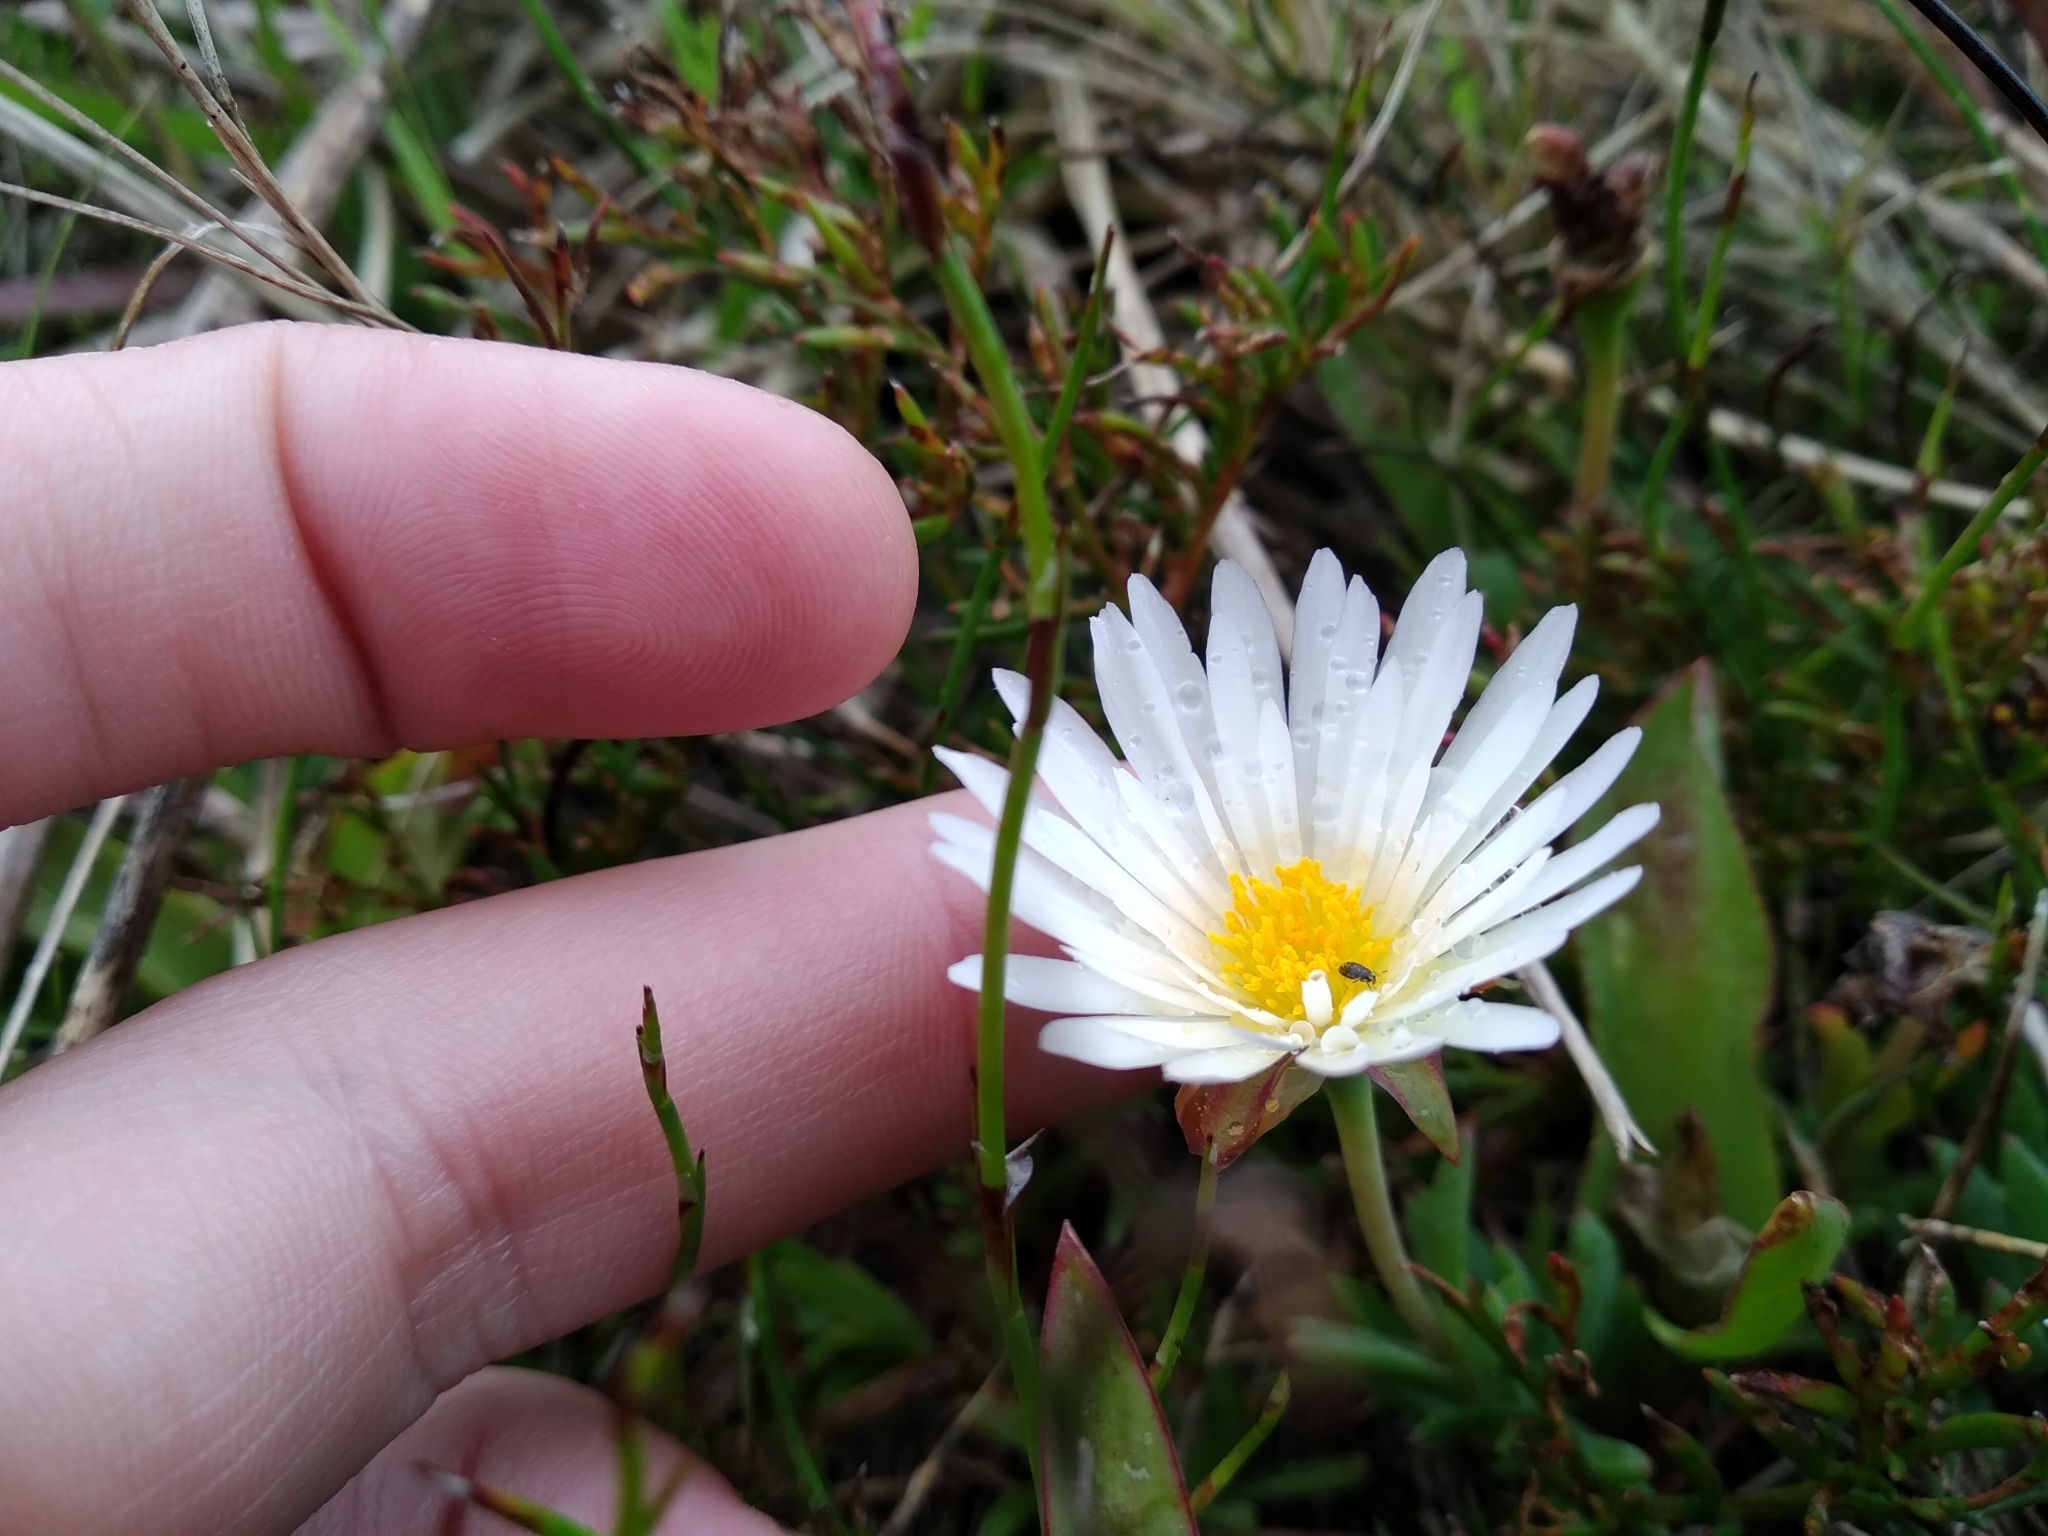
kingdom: Plantae
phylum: Tracheophyta
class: Magnoliopsida
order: Caryophyllales
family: Aizoaceae
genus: Lampranthus
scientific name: Lampranthus reptans
